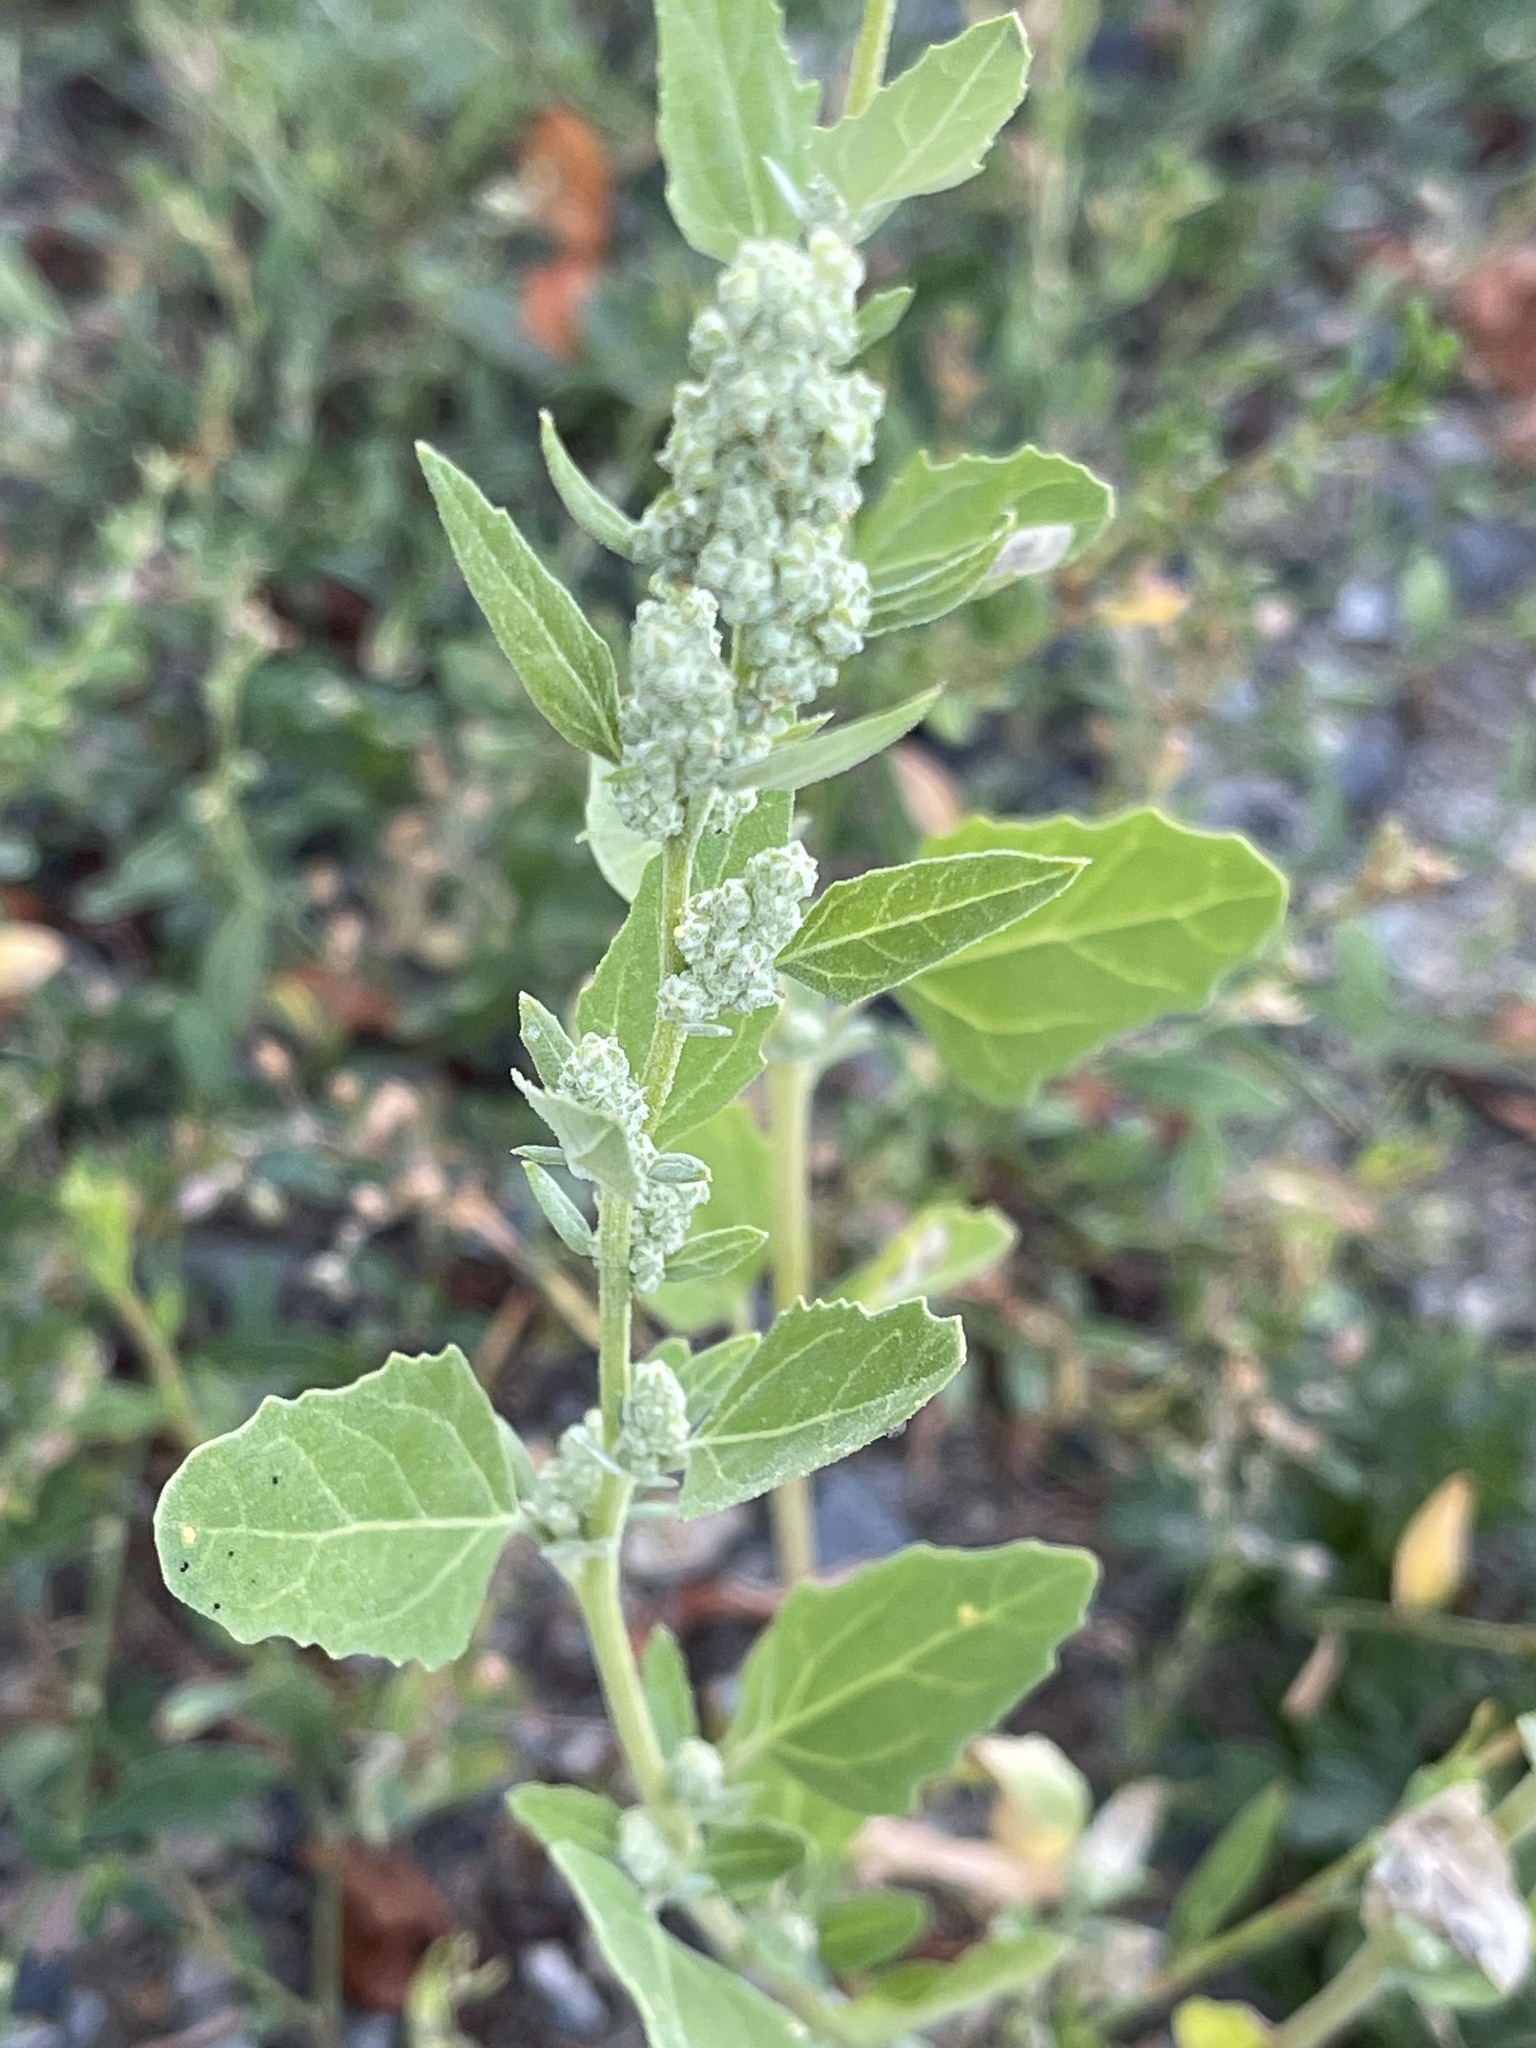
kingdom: Plantae
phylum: Tracheophyta
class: Magnoliopsida
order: Caryophyllales
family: Amaranthaceae
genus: Chenopodium
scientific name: Chenopodium album
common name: Fat-hen
